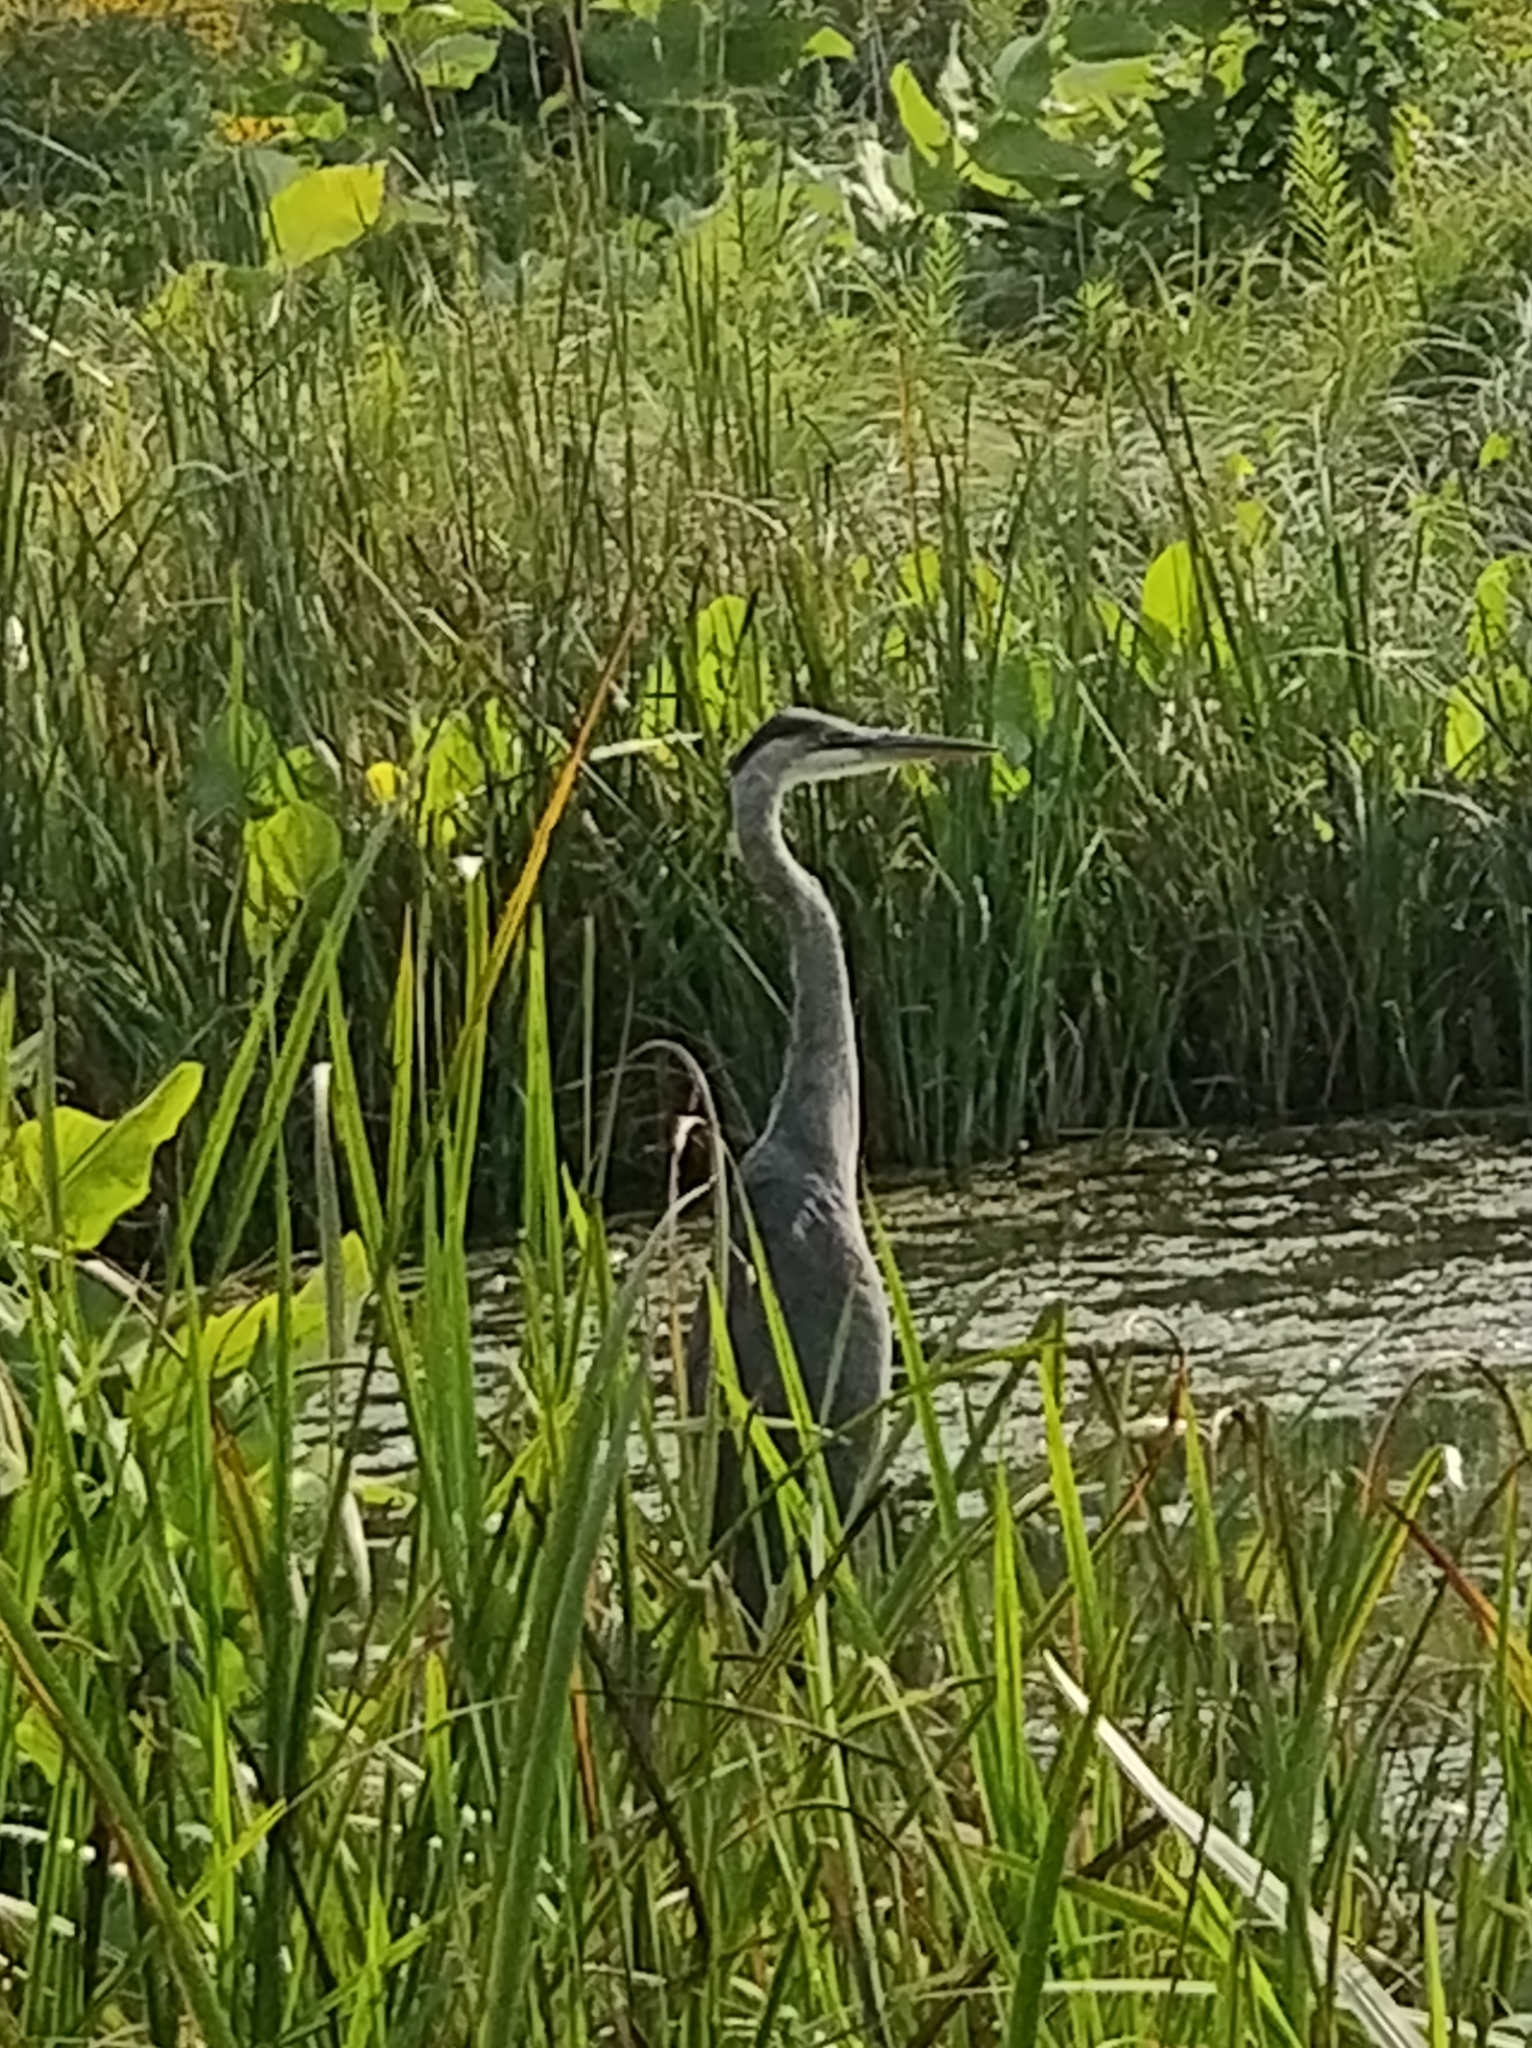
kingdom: Animalia
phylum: Chordata
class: Aves
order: Pelecaniformes
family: Ardeidae
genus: Ardea
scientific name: Ardea herodias
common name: Great blue heron
